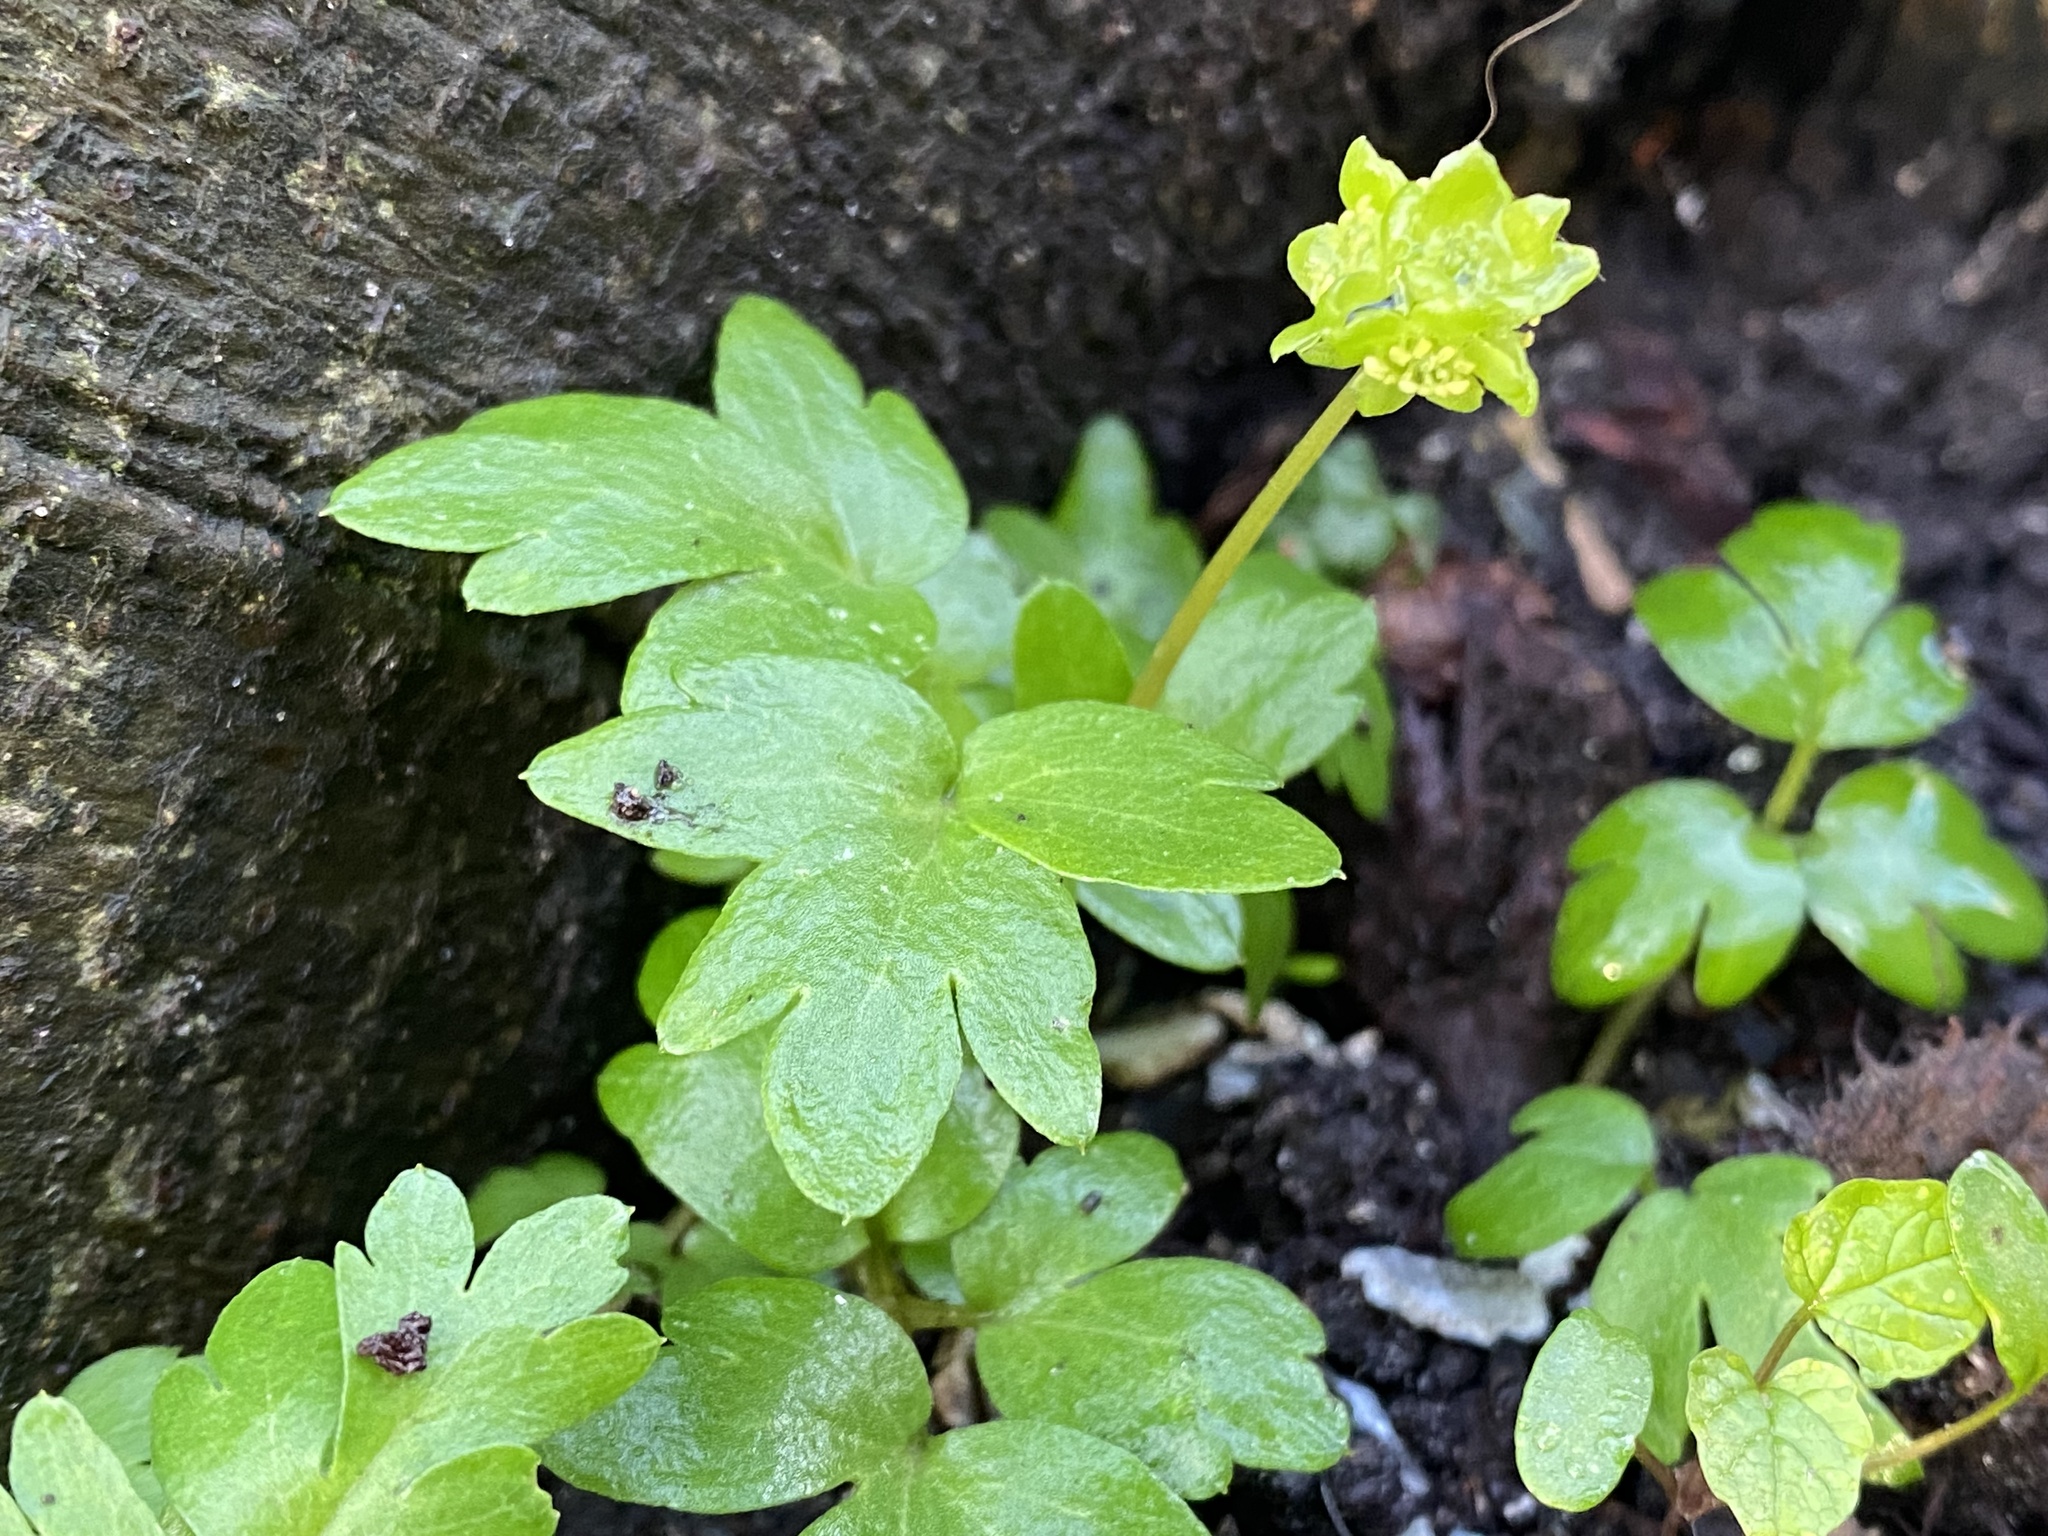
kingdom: Plantae
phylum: Tracheophyta
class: Magnoliopsida
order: Dipsacales
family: Viburnaceae
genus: Adoxa
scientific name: Adoxa moschatellina
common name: Moschatel
